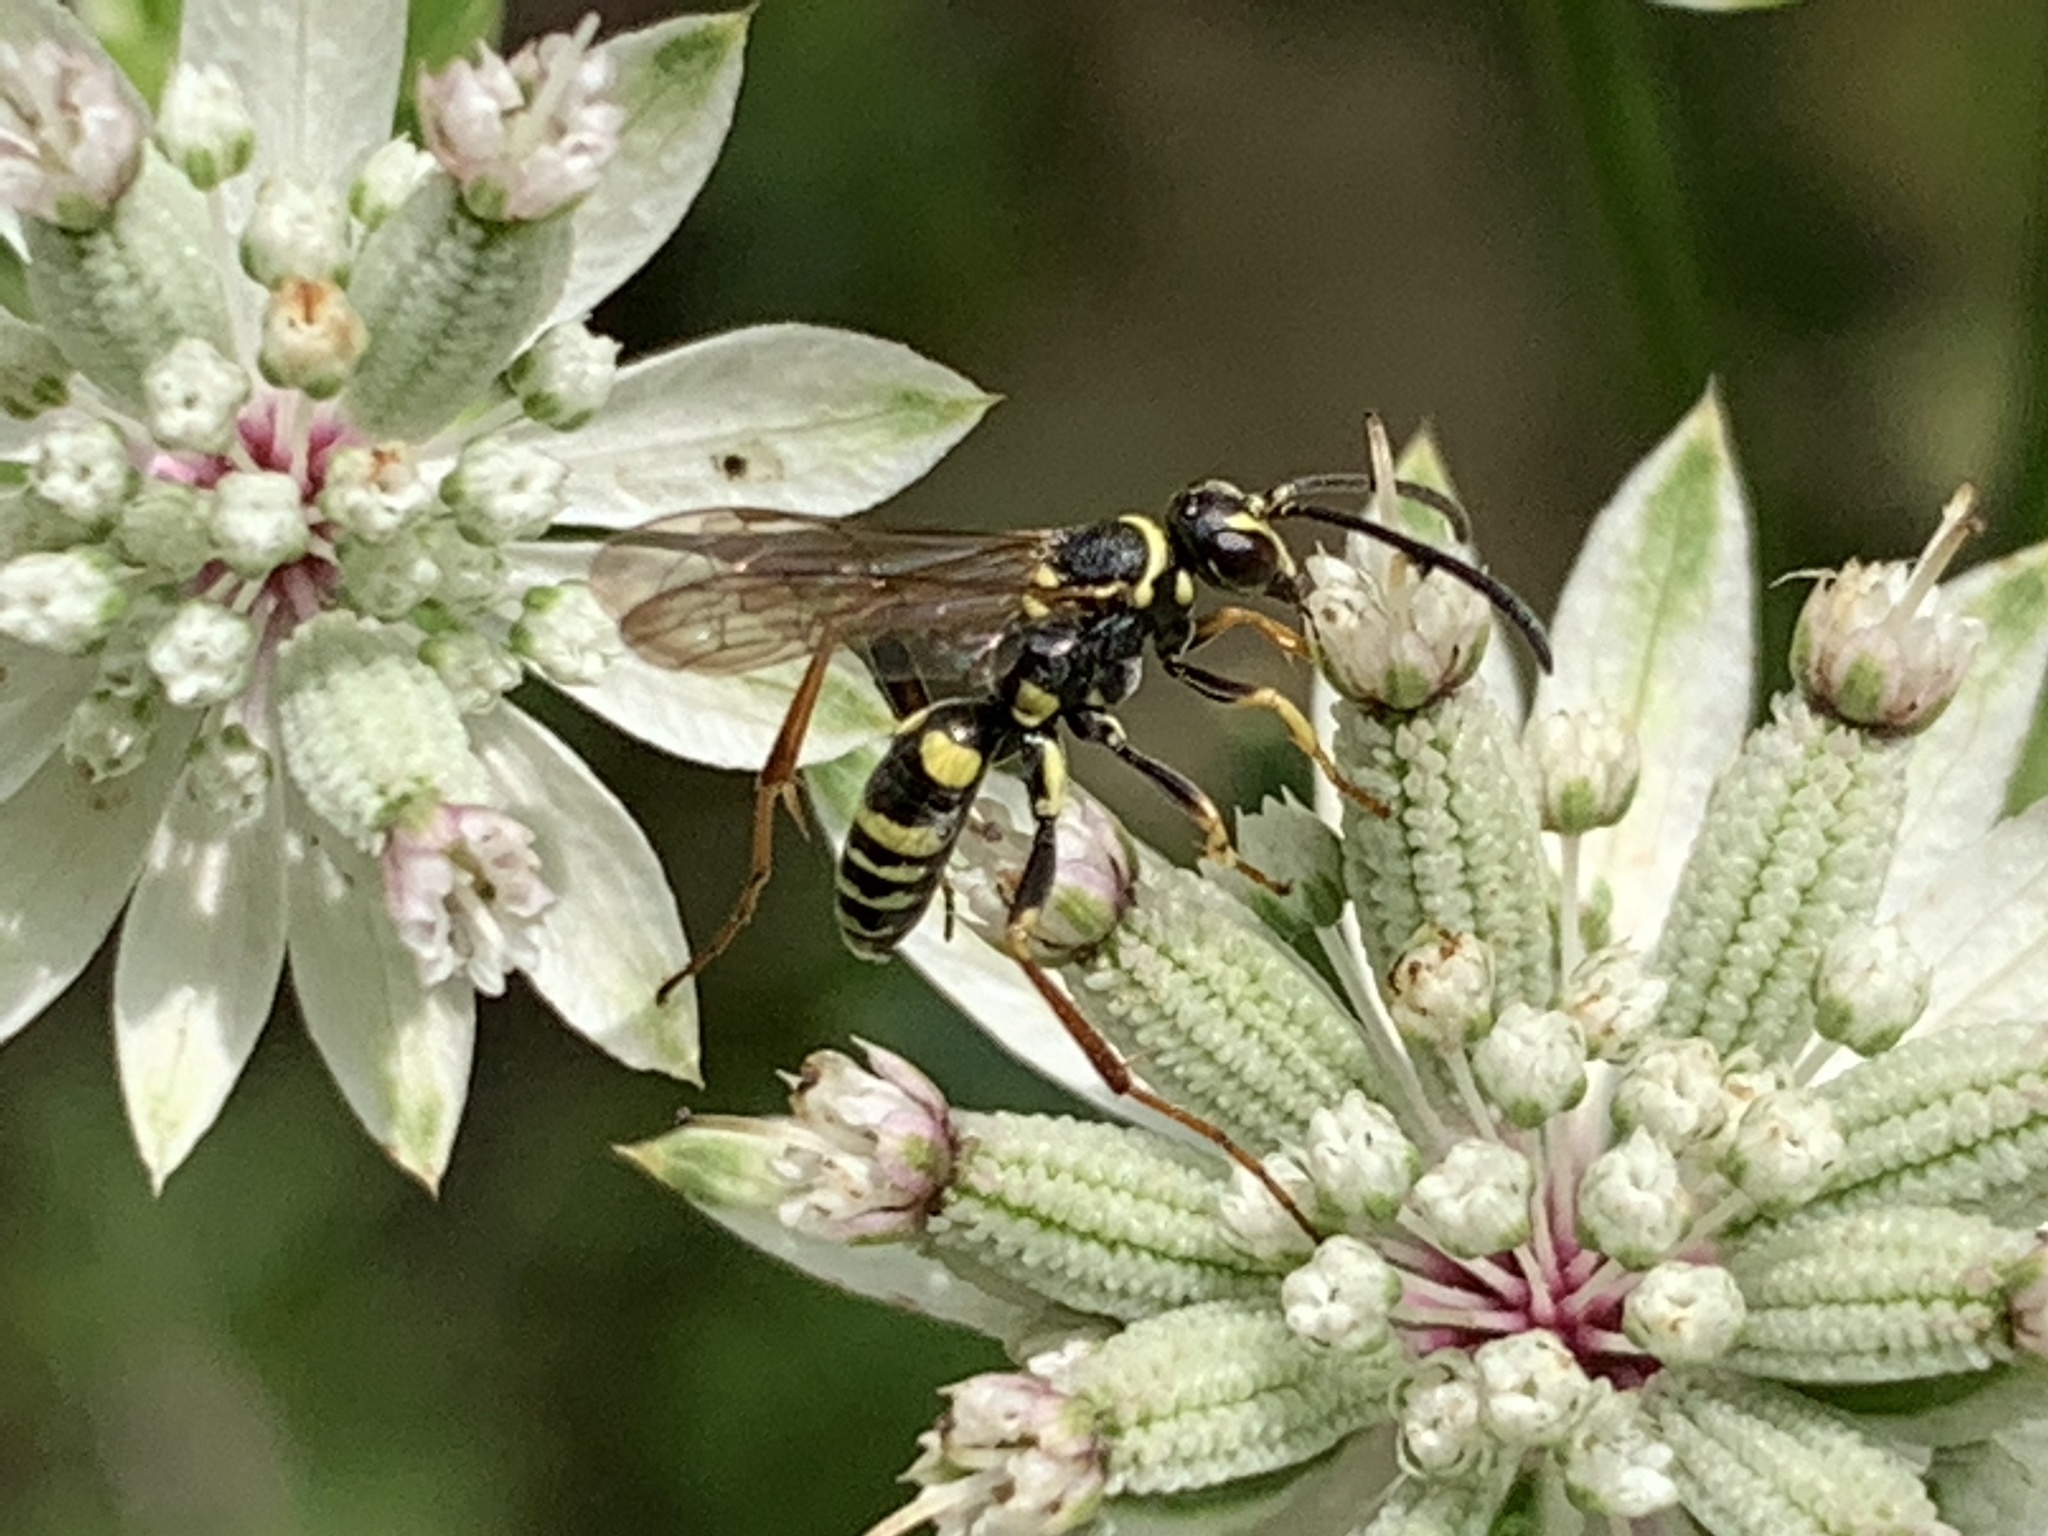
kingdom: Animalia
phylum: Arthropoda
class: Insecta
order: Hymenoptera
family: Pompilidae
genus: Ceropales
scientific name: Ceropales maculata
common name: Spider wasp
